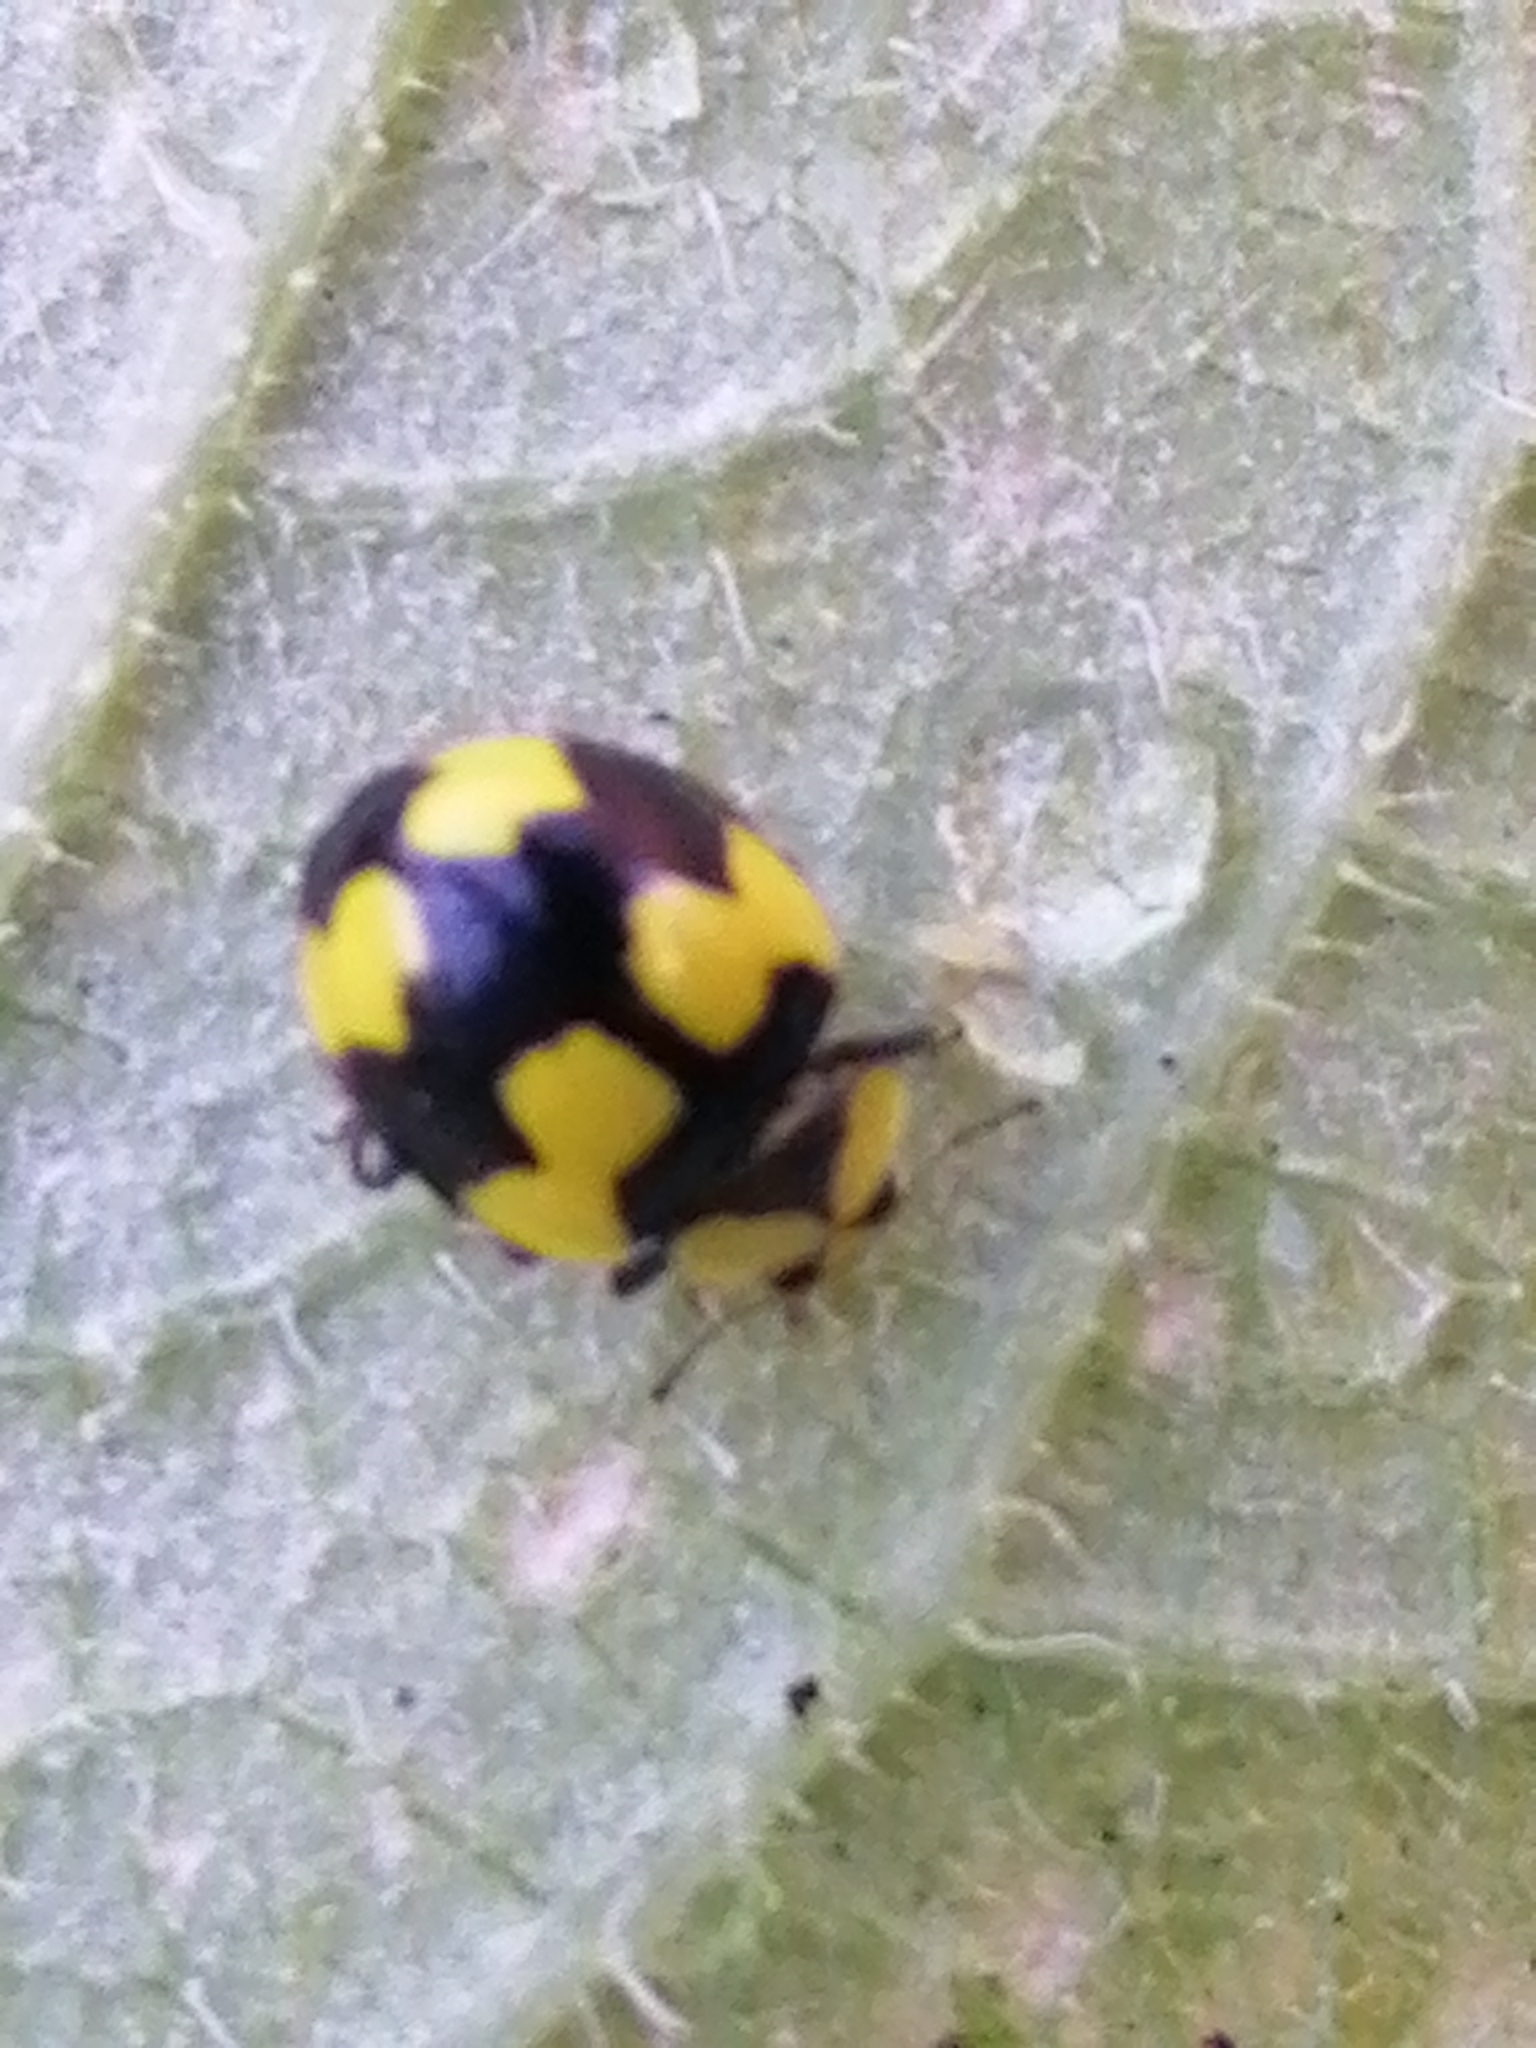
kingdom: Animalia
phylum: Arthropoda
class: Insecta
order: Coleoptera
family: Coccinellidae
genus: Illeis
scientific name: Illeis galbula
